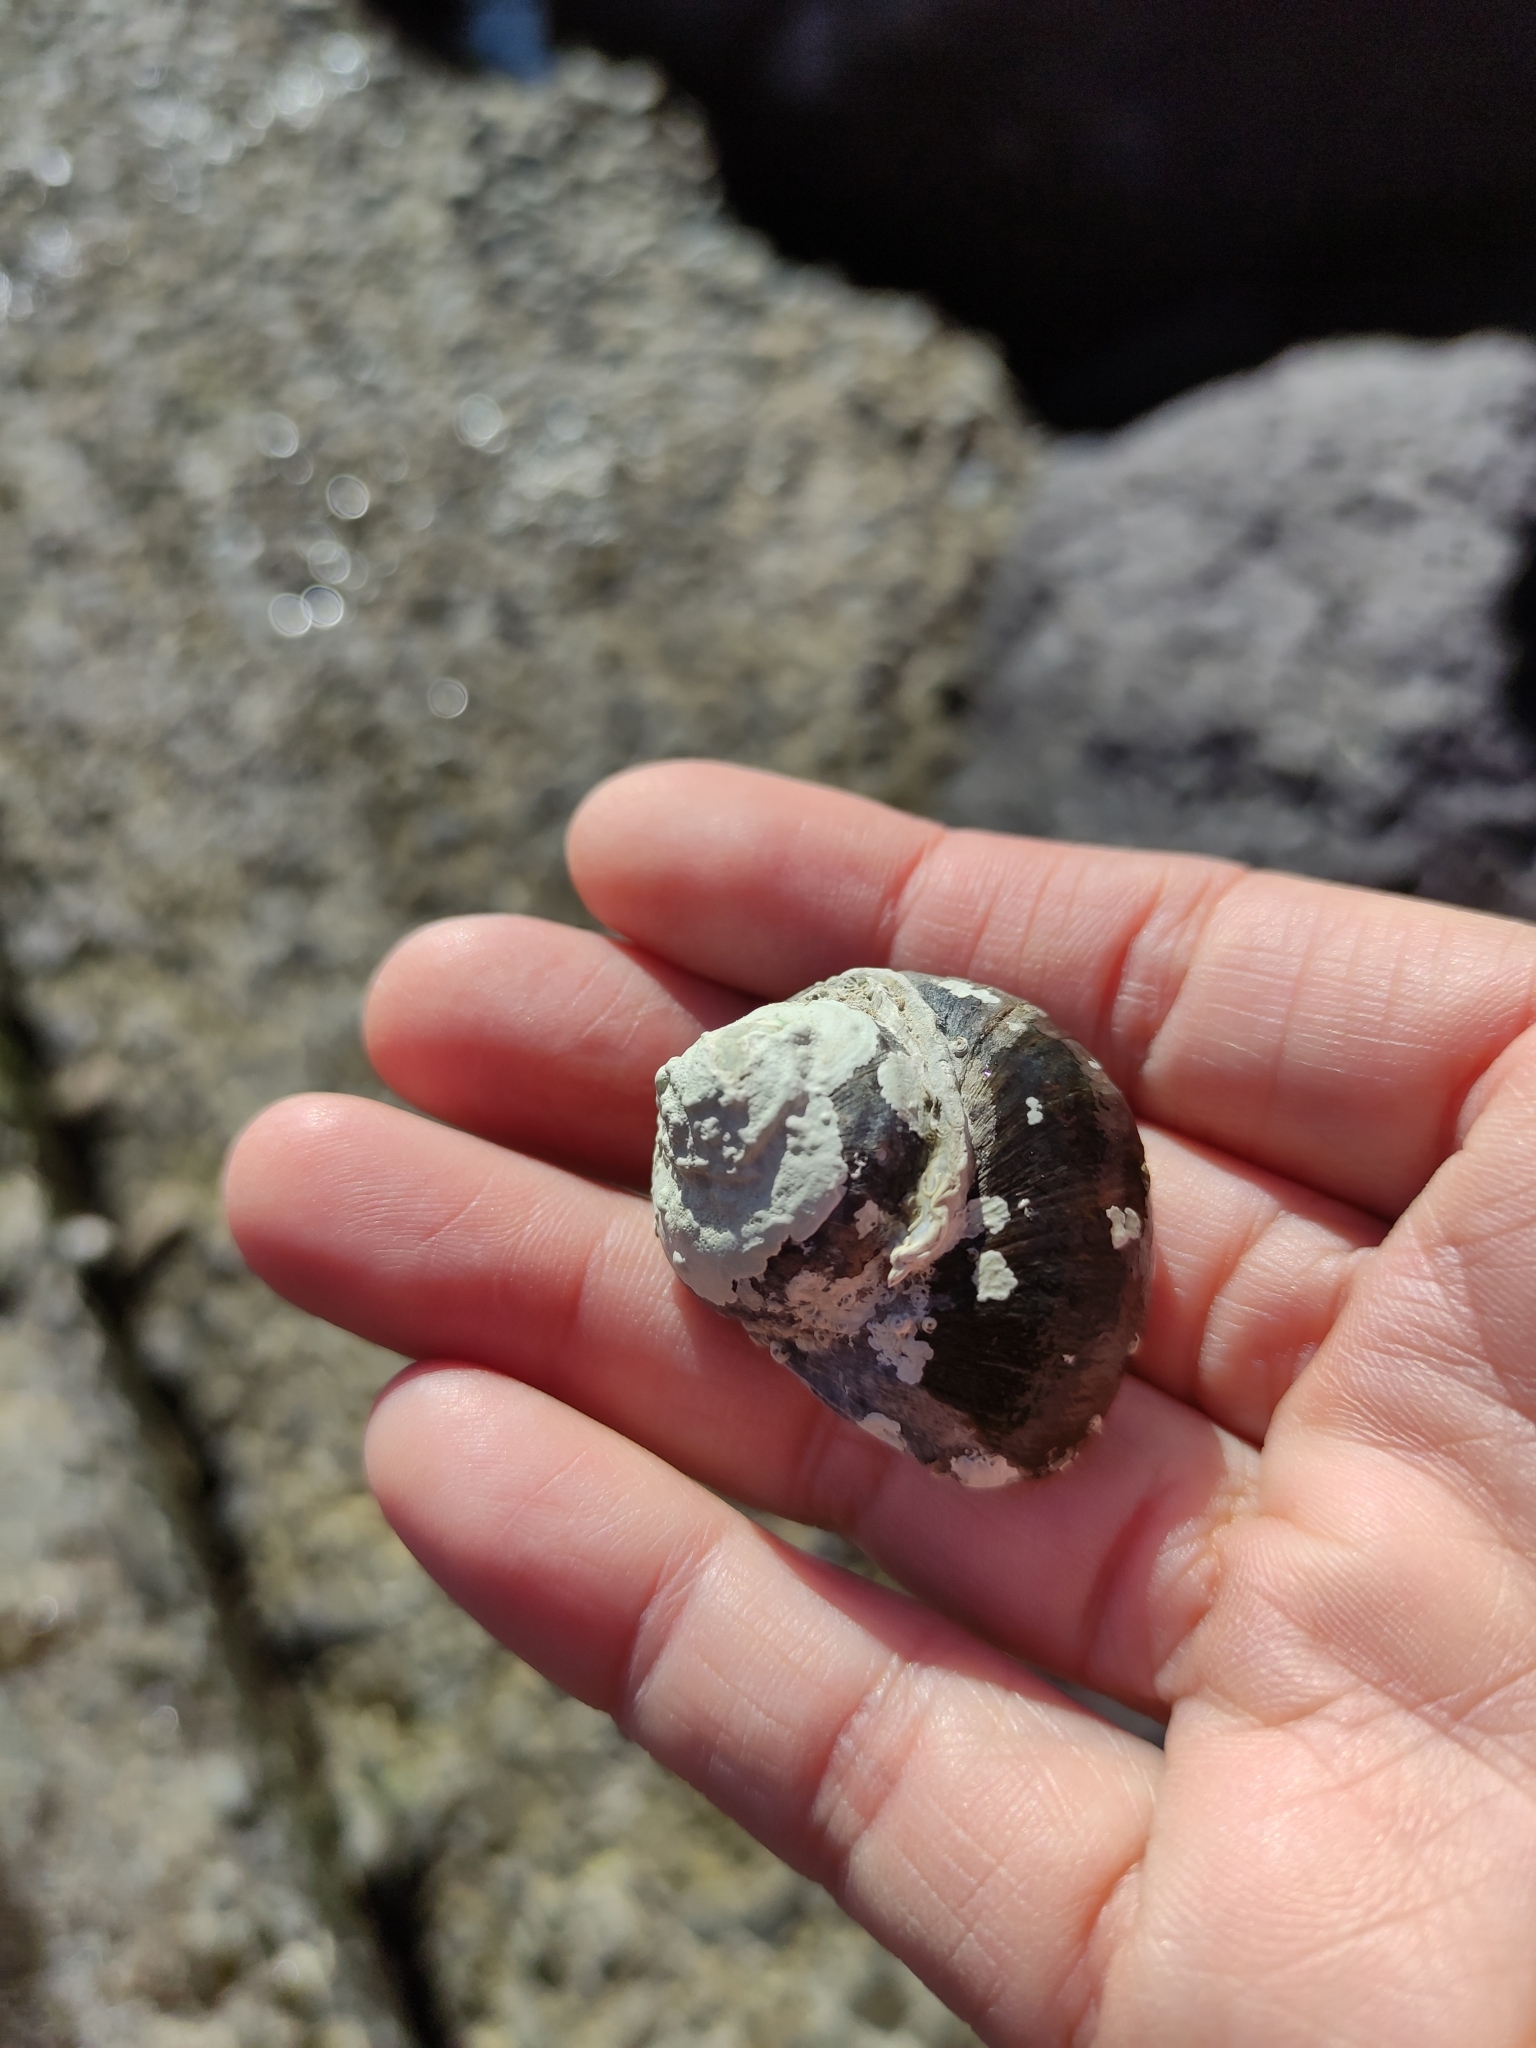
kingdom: Animalia
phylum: Mollusca
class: Gastropoda
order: Trochida
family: Turbinidae
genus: Lunella
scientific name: Lunella smaragda
